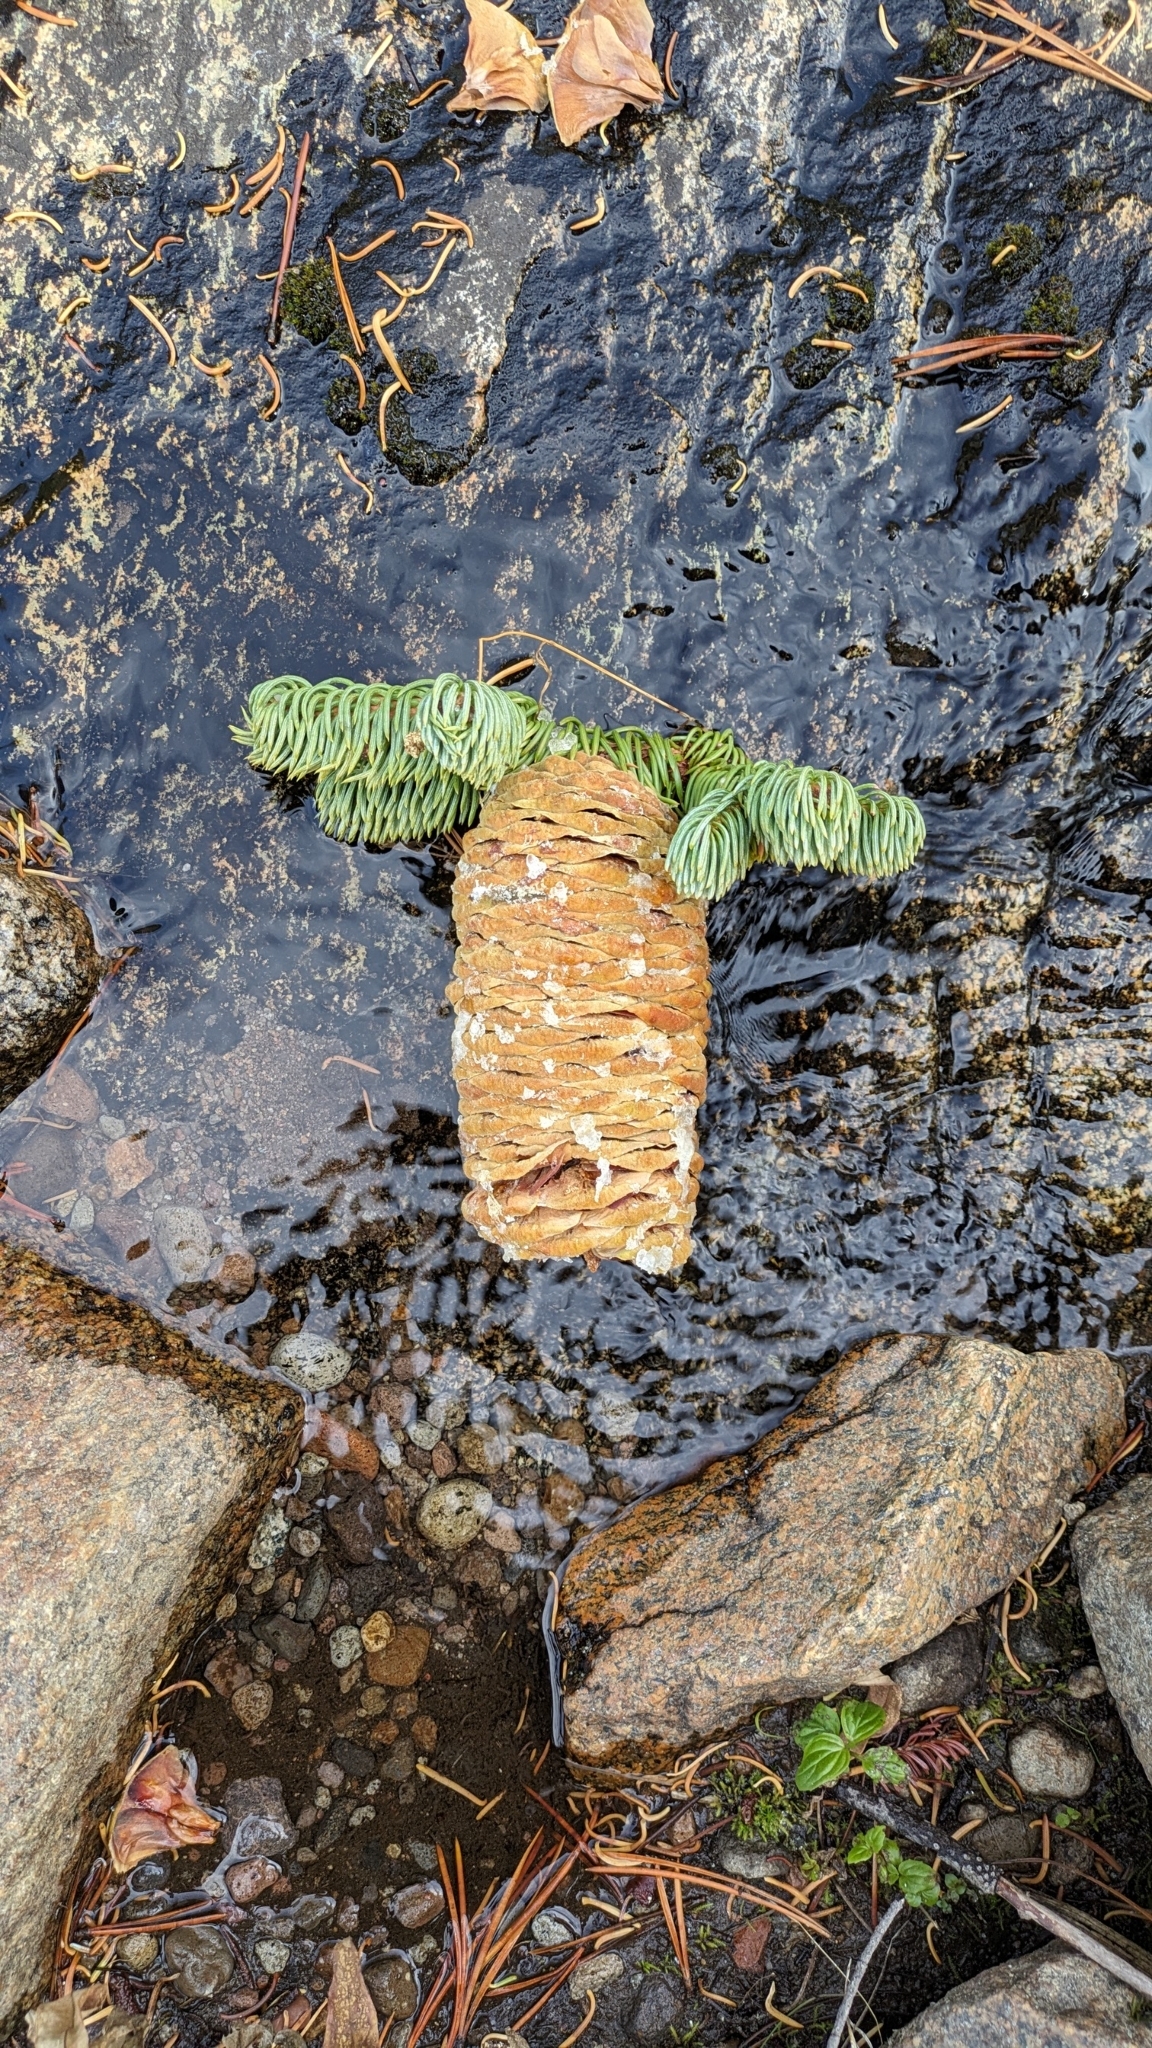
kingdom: Plantae
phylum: Tracheophyta
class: Pinopsida
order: Pinales
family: Pinaceae
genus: Abies
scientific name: Abies magnifica bis
